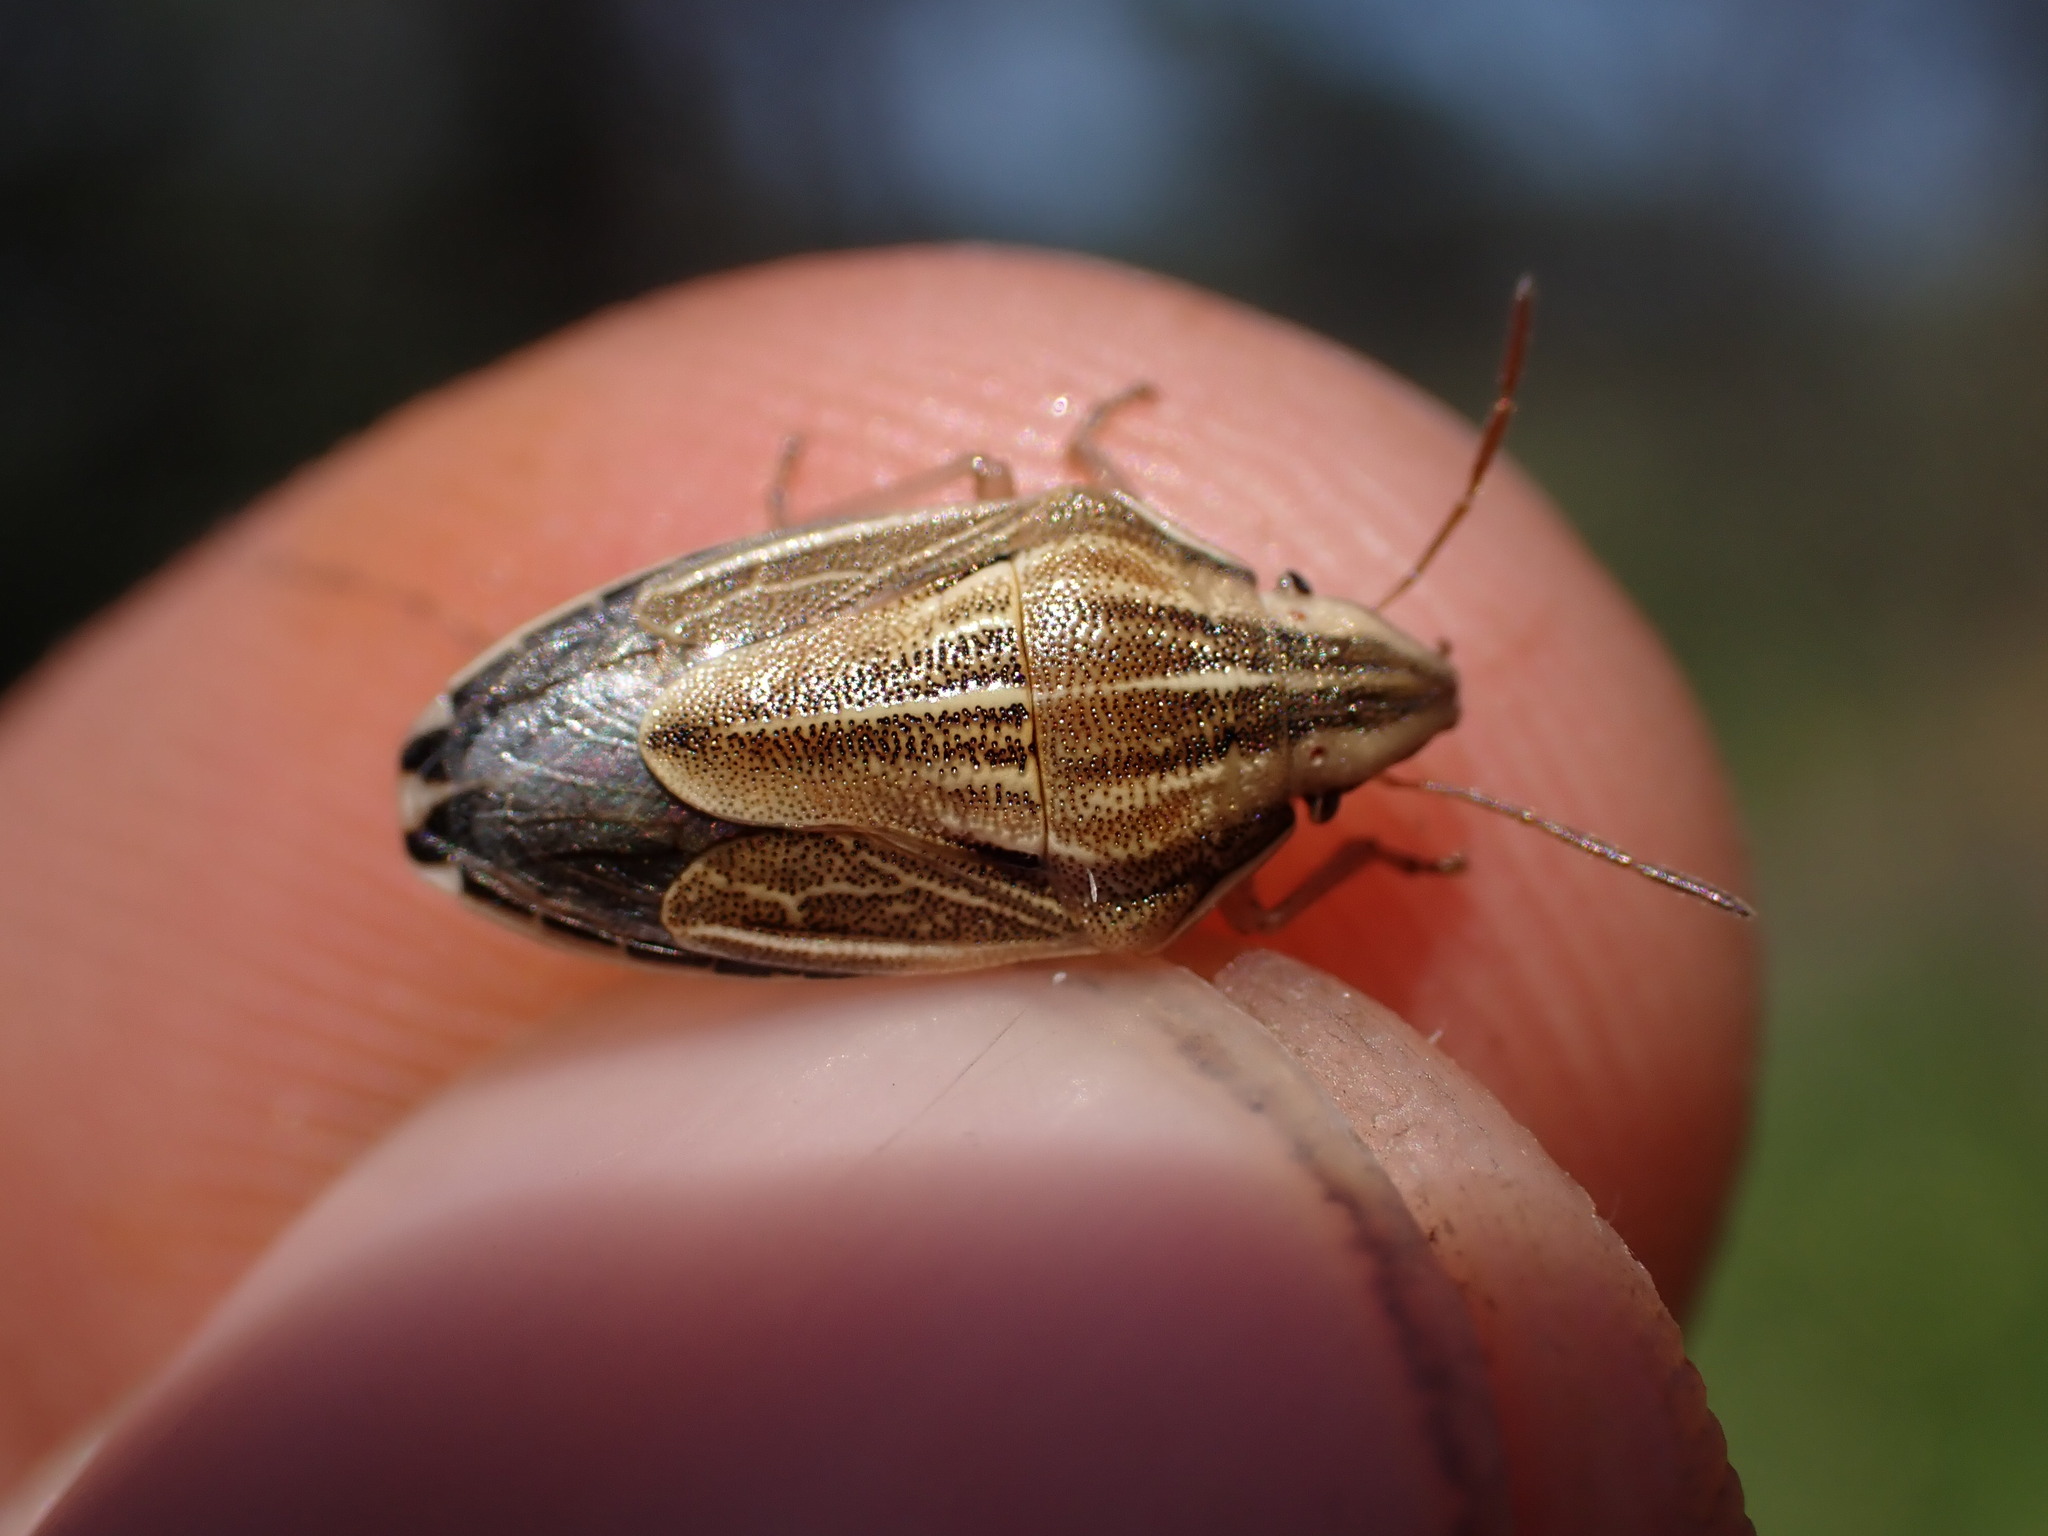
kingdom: Animalia
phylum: Arthropoda
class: Insecta
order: Hemiptera
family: Pentatomidae
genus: Aelia
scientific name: Aelia acuminata
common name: Bishop's mitre
